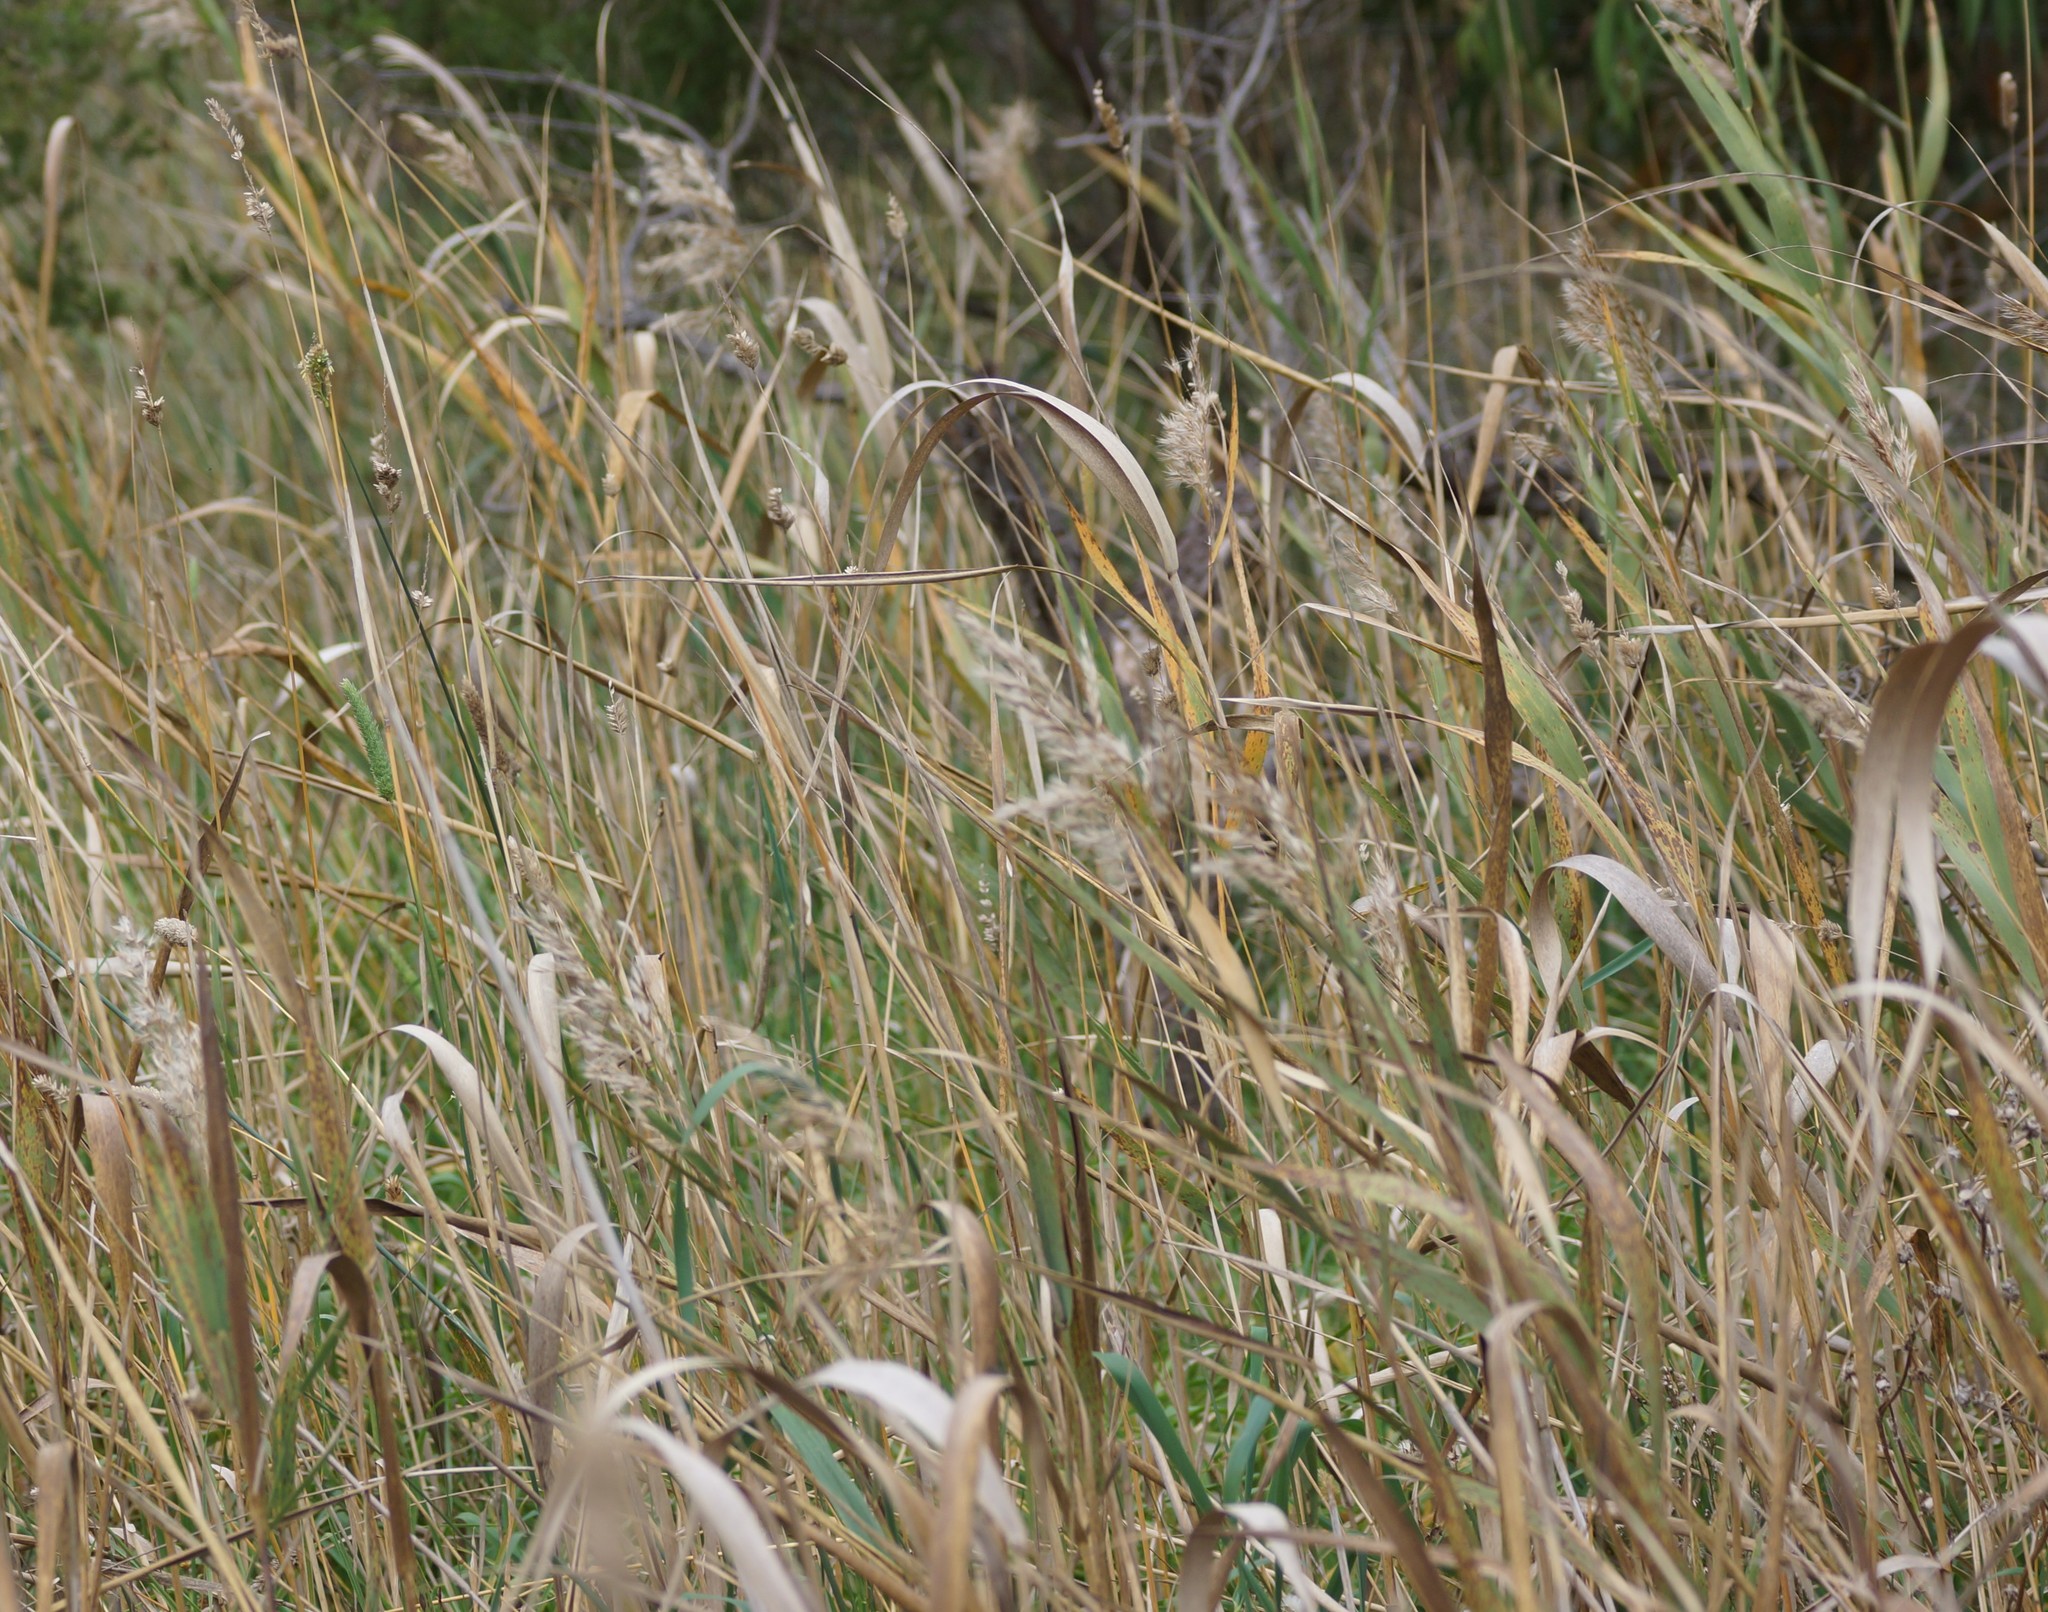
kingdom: Plantae
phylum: Tracheophyta
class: Liliopsida
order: Poales
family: Typhaceae
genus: Typha
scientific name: Typha orientalis
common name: Bullrush
